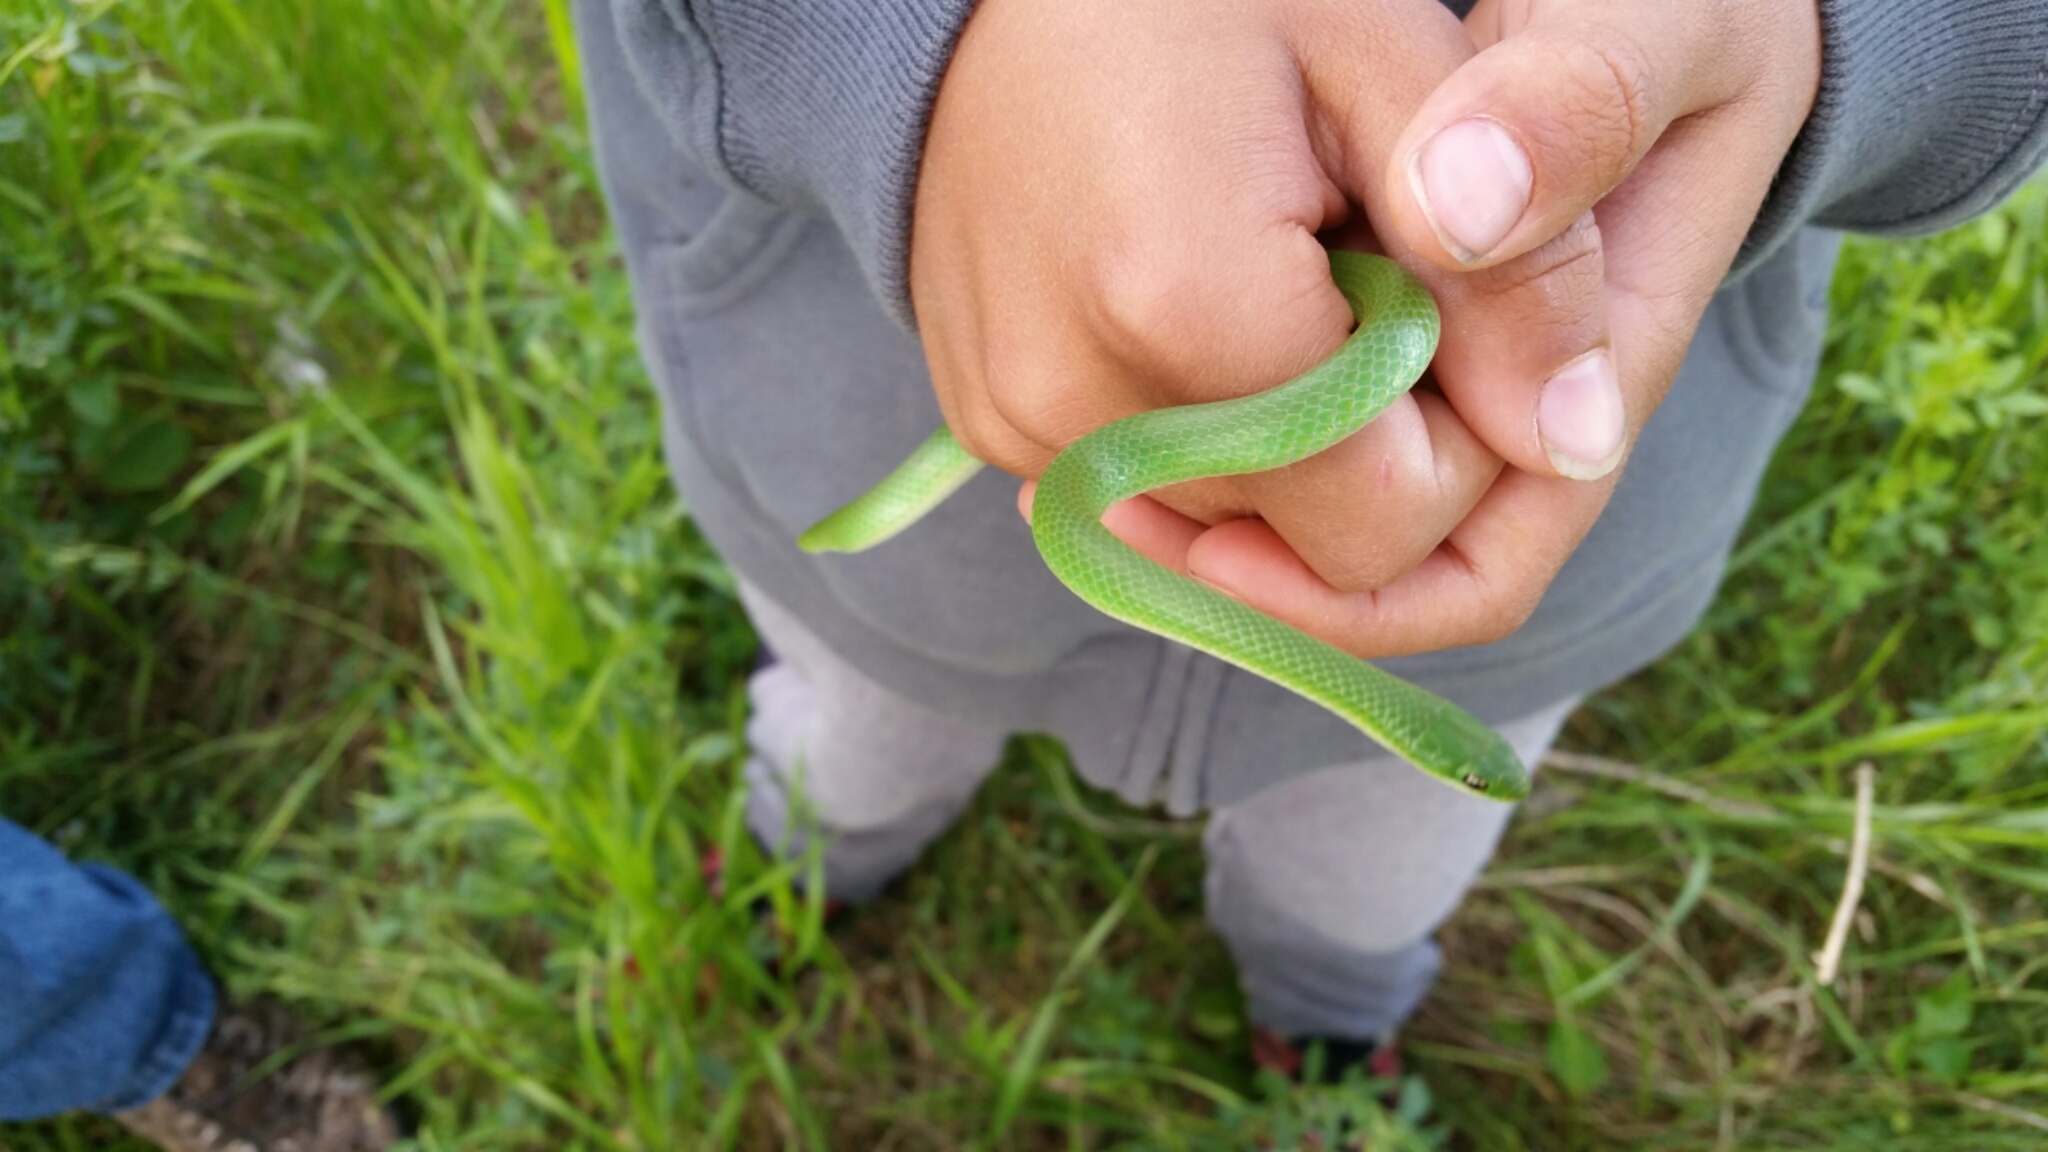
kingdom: Animalia
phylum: Chordata
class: Squamata
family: Colubridae
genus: Opheodrys
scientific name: Opheodrys vernalis
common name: Smooth green snake
